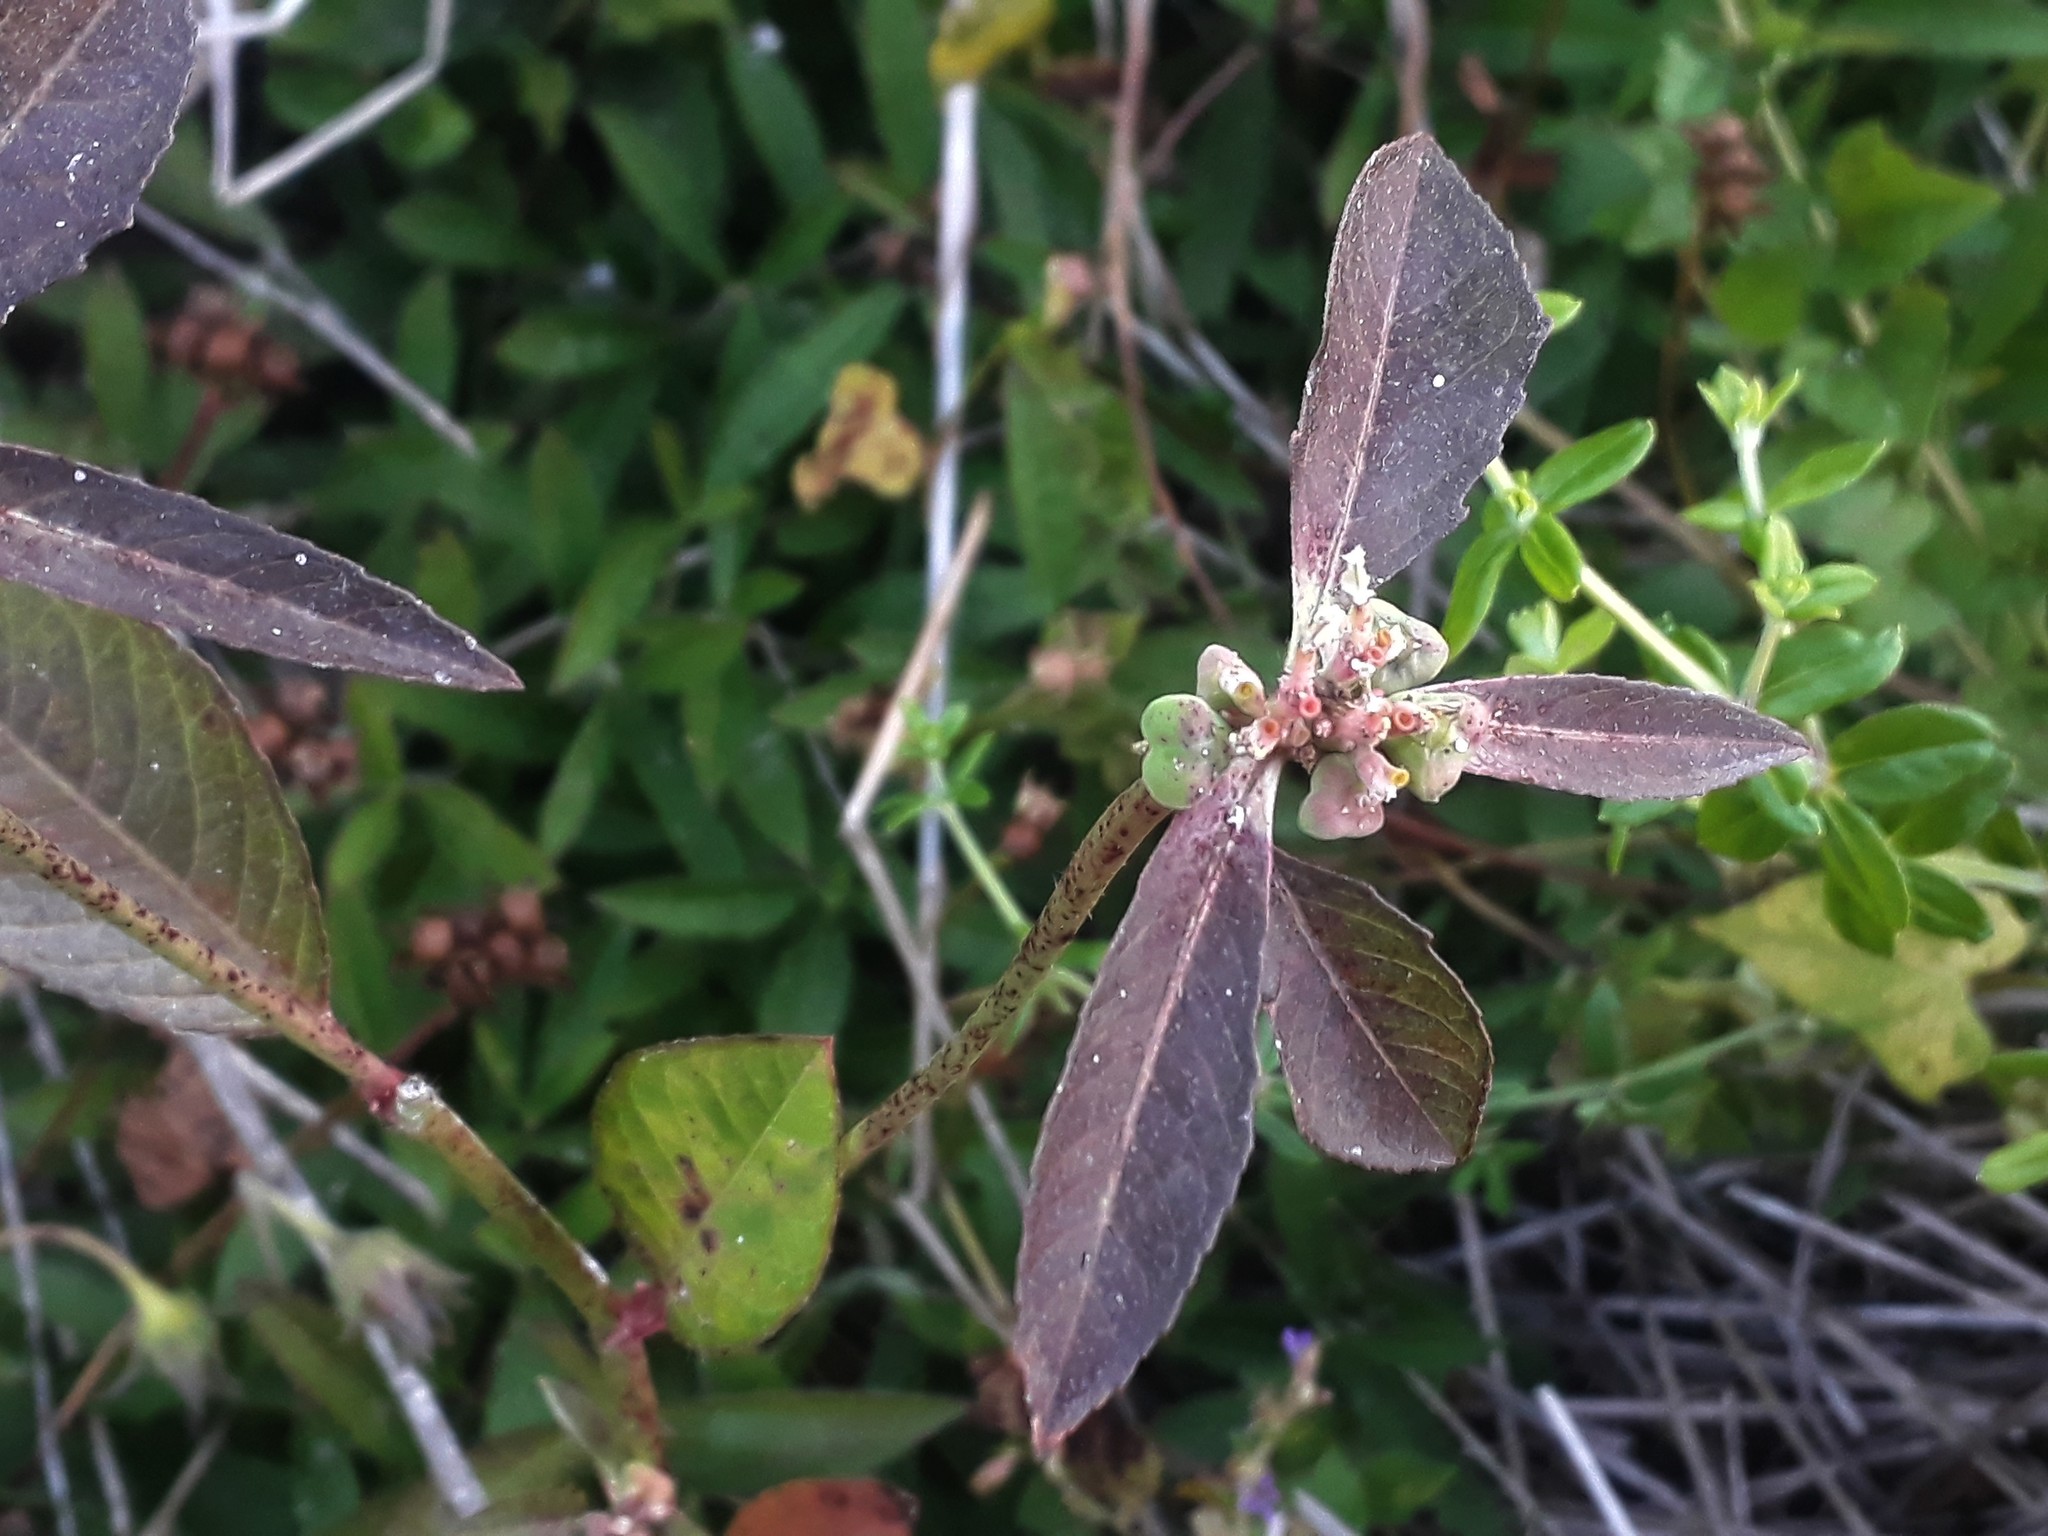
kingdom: Plantae
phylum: Tracheophyta
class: Magnoliopsida
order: Malpighiales
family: Euphorbiaceae
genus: Euphorbia
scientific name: Euphorbia heterophylla
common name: Mexican fireplant
